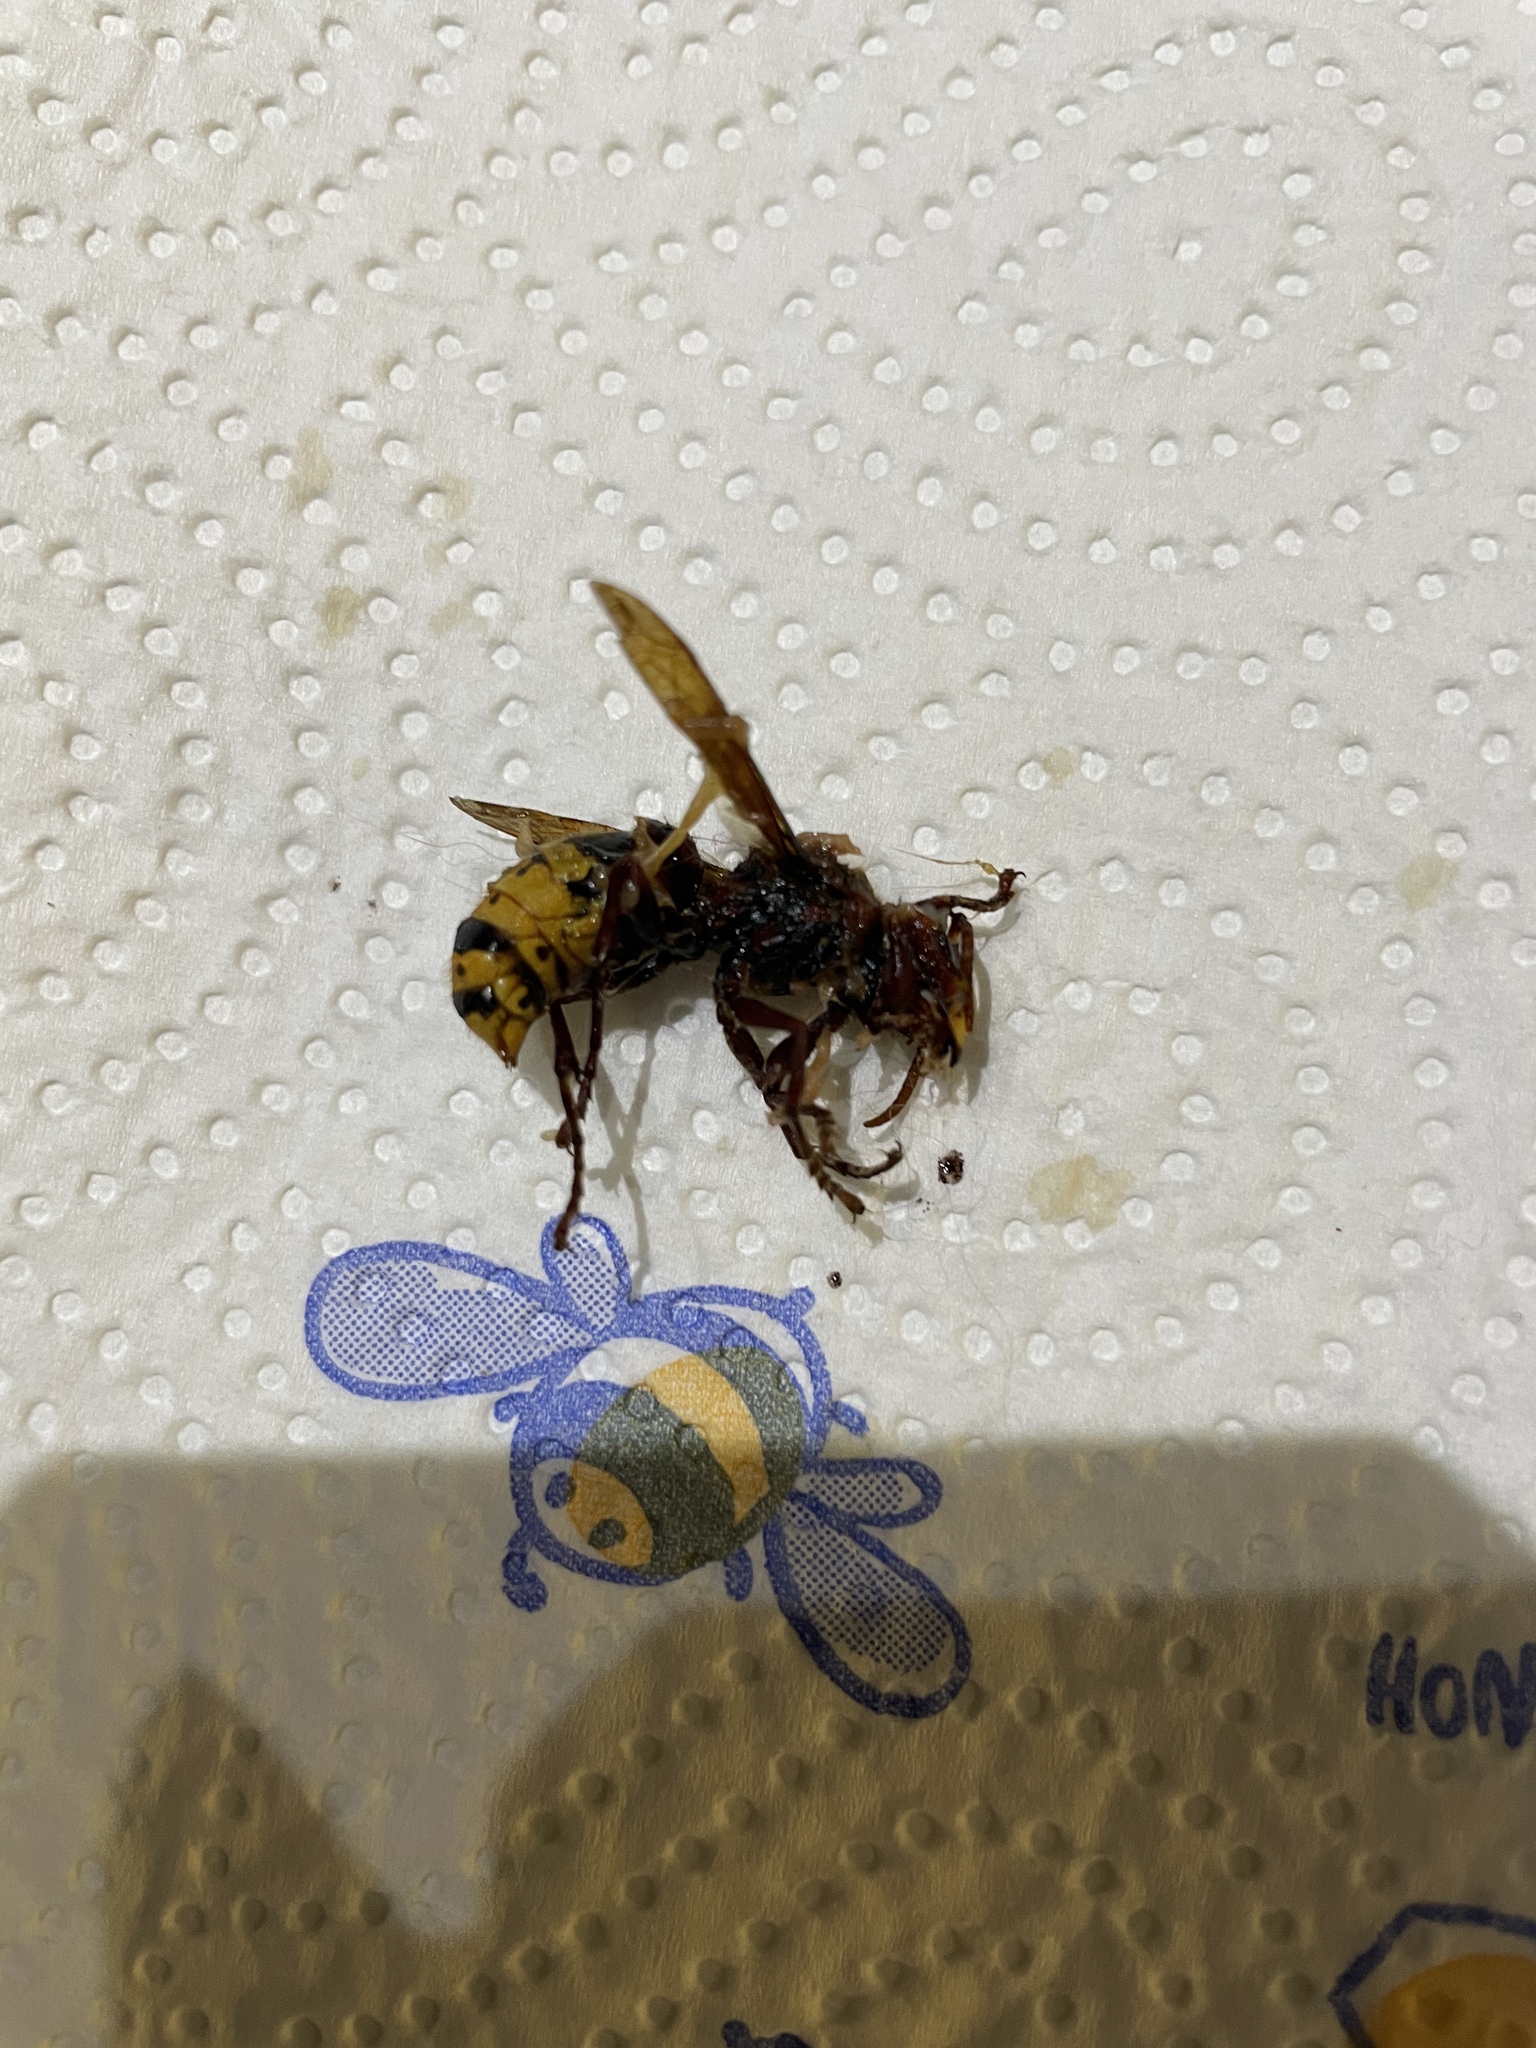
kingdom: Animalia
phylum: Arthropoda
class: Insecta
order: Hymenoptera
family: Vespidae
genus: Vespa
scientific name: Vespa crabro
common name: Hornet
